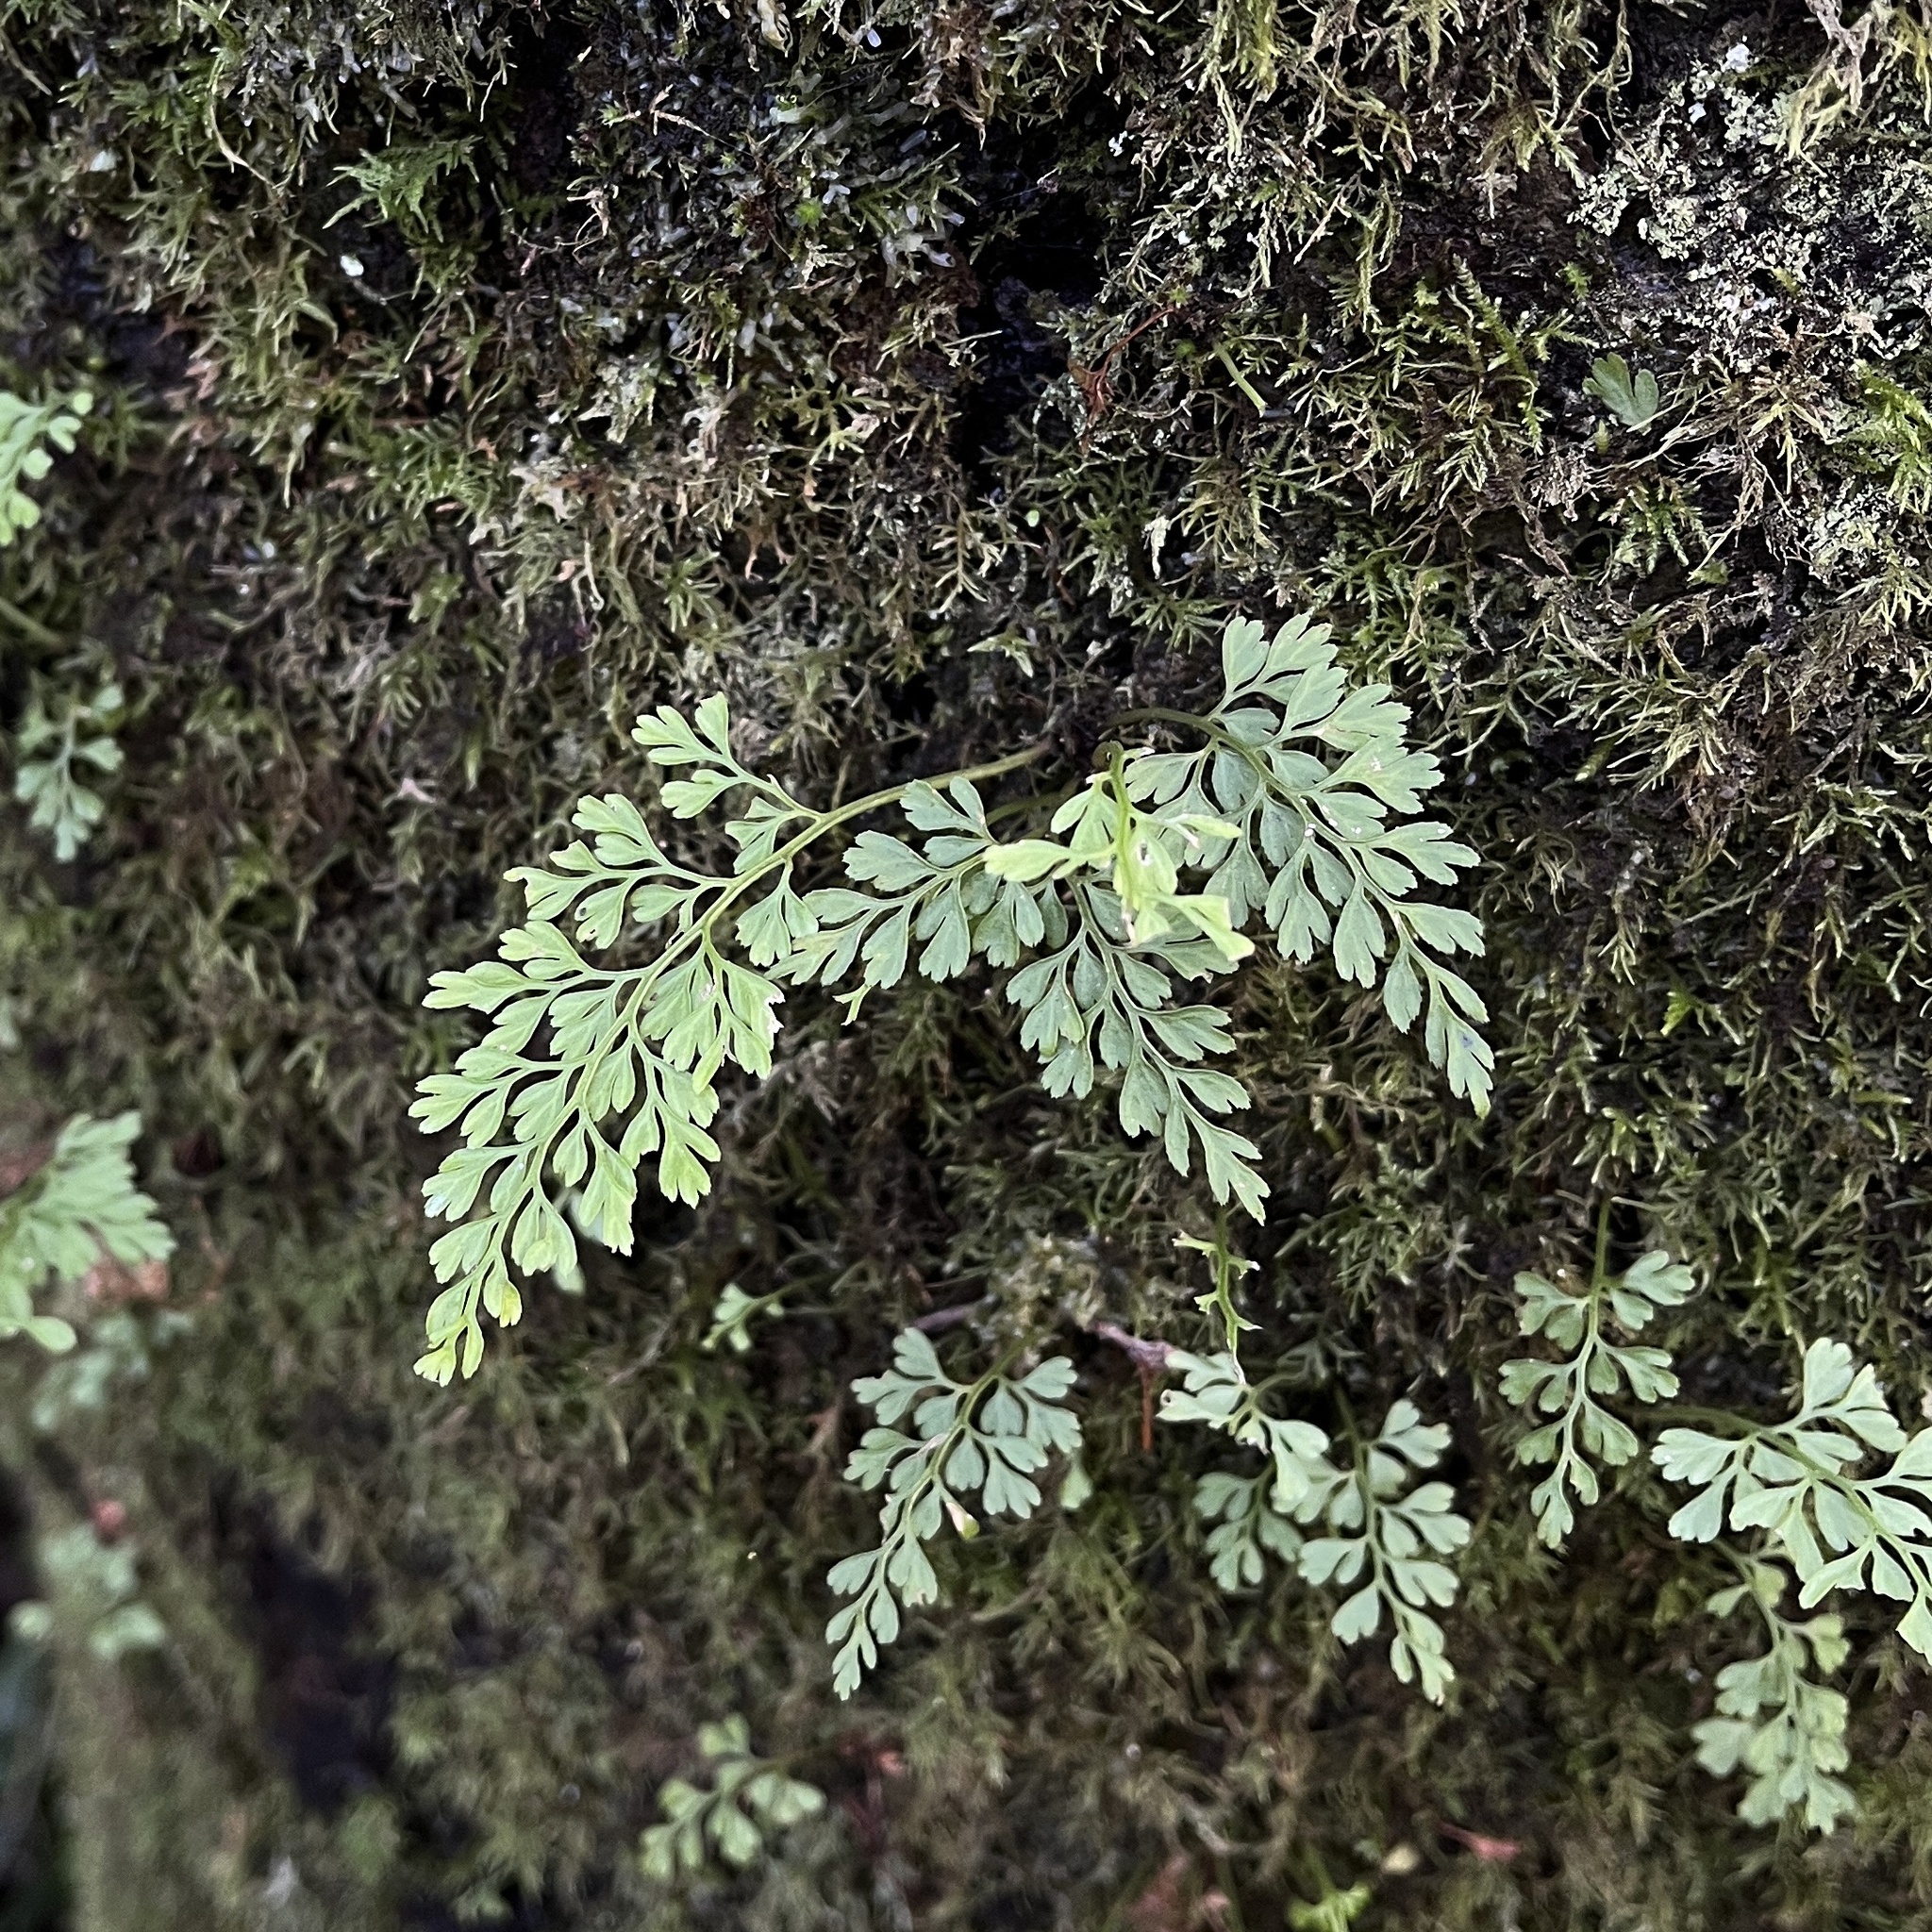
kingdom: Plantae
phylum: Tracheophyta
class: Polypodiopsida
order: Polypodiales
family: Aspleniaceae
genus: Asplenium
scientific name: Asplenium dareoides
